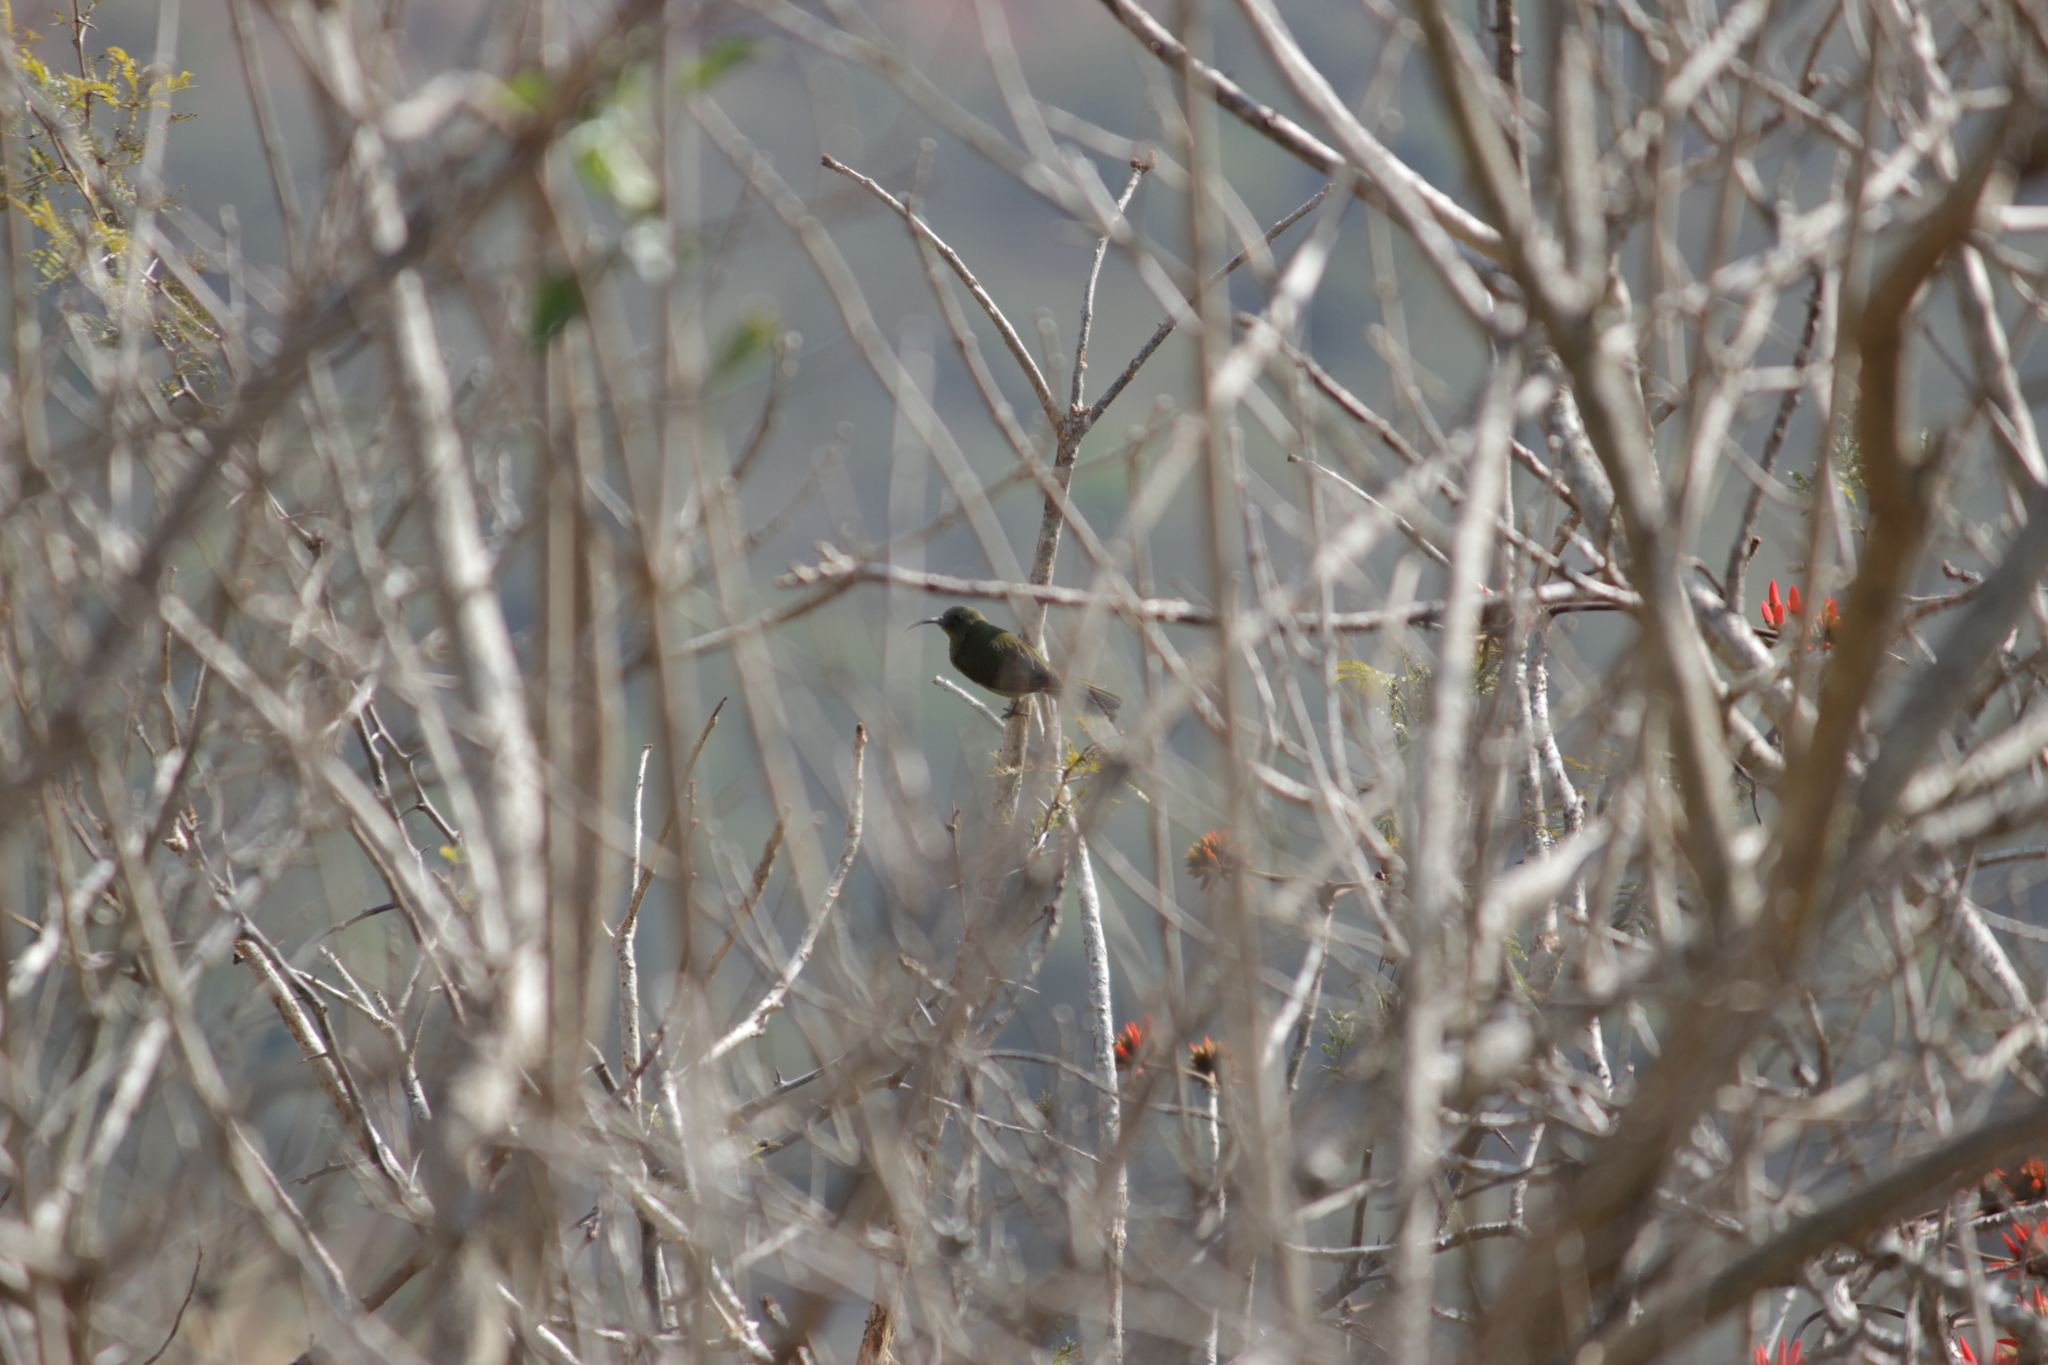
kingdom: Animalia
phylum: Chordata
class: Aves
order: Passeriformes
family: Nectariniidae
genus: Cyanomitra
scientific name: Cyanomitra olivacea
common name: Olive sunbird
